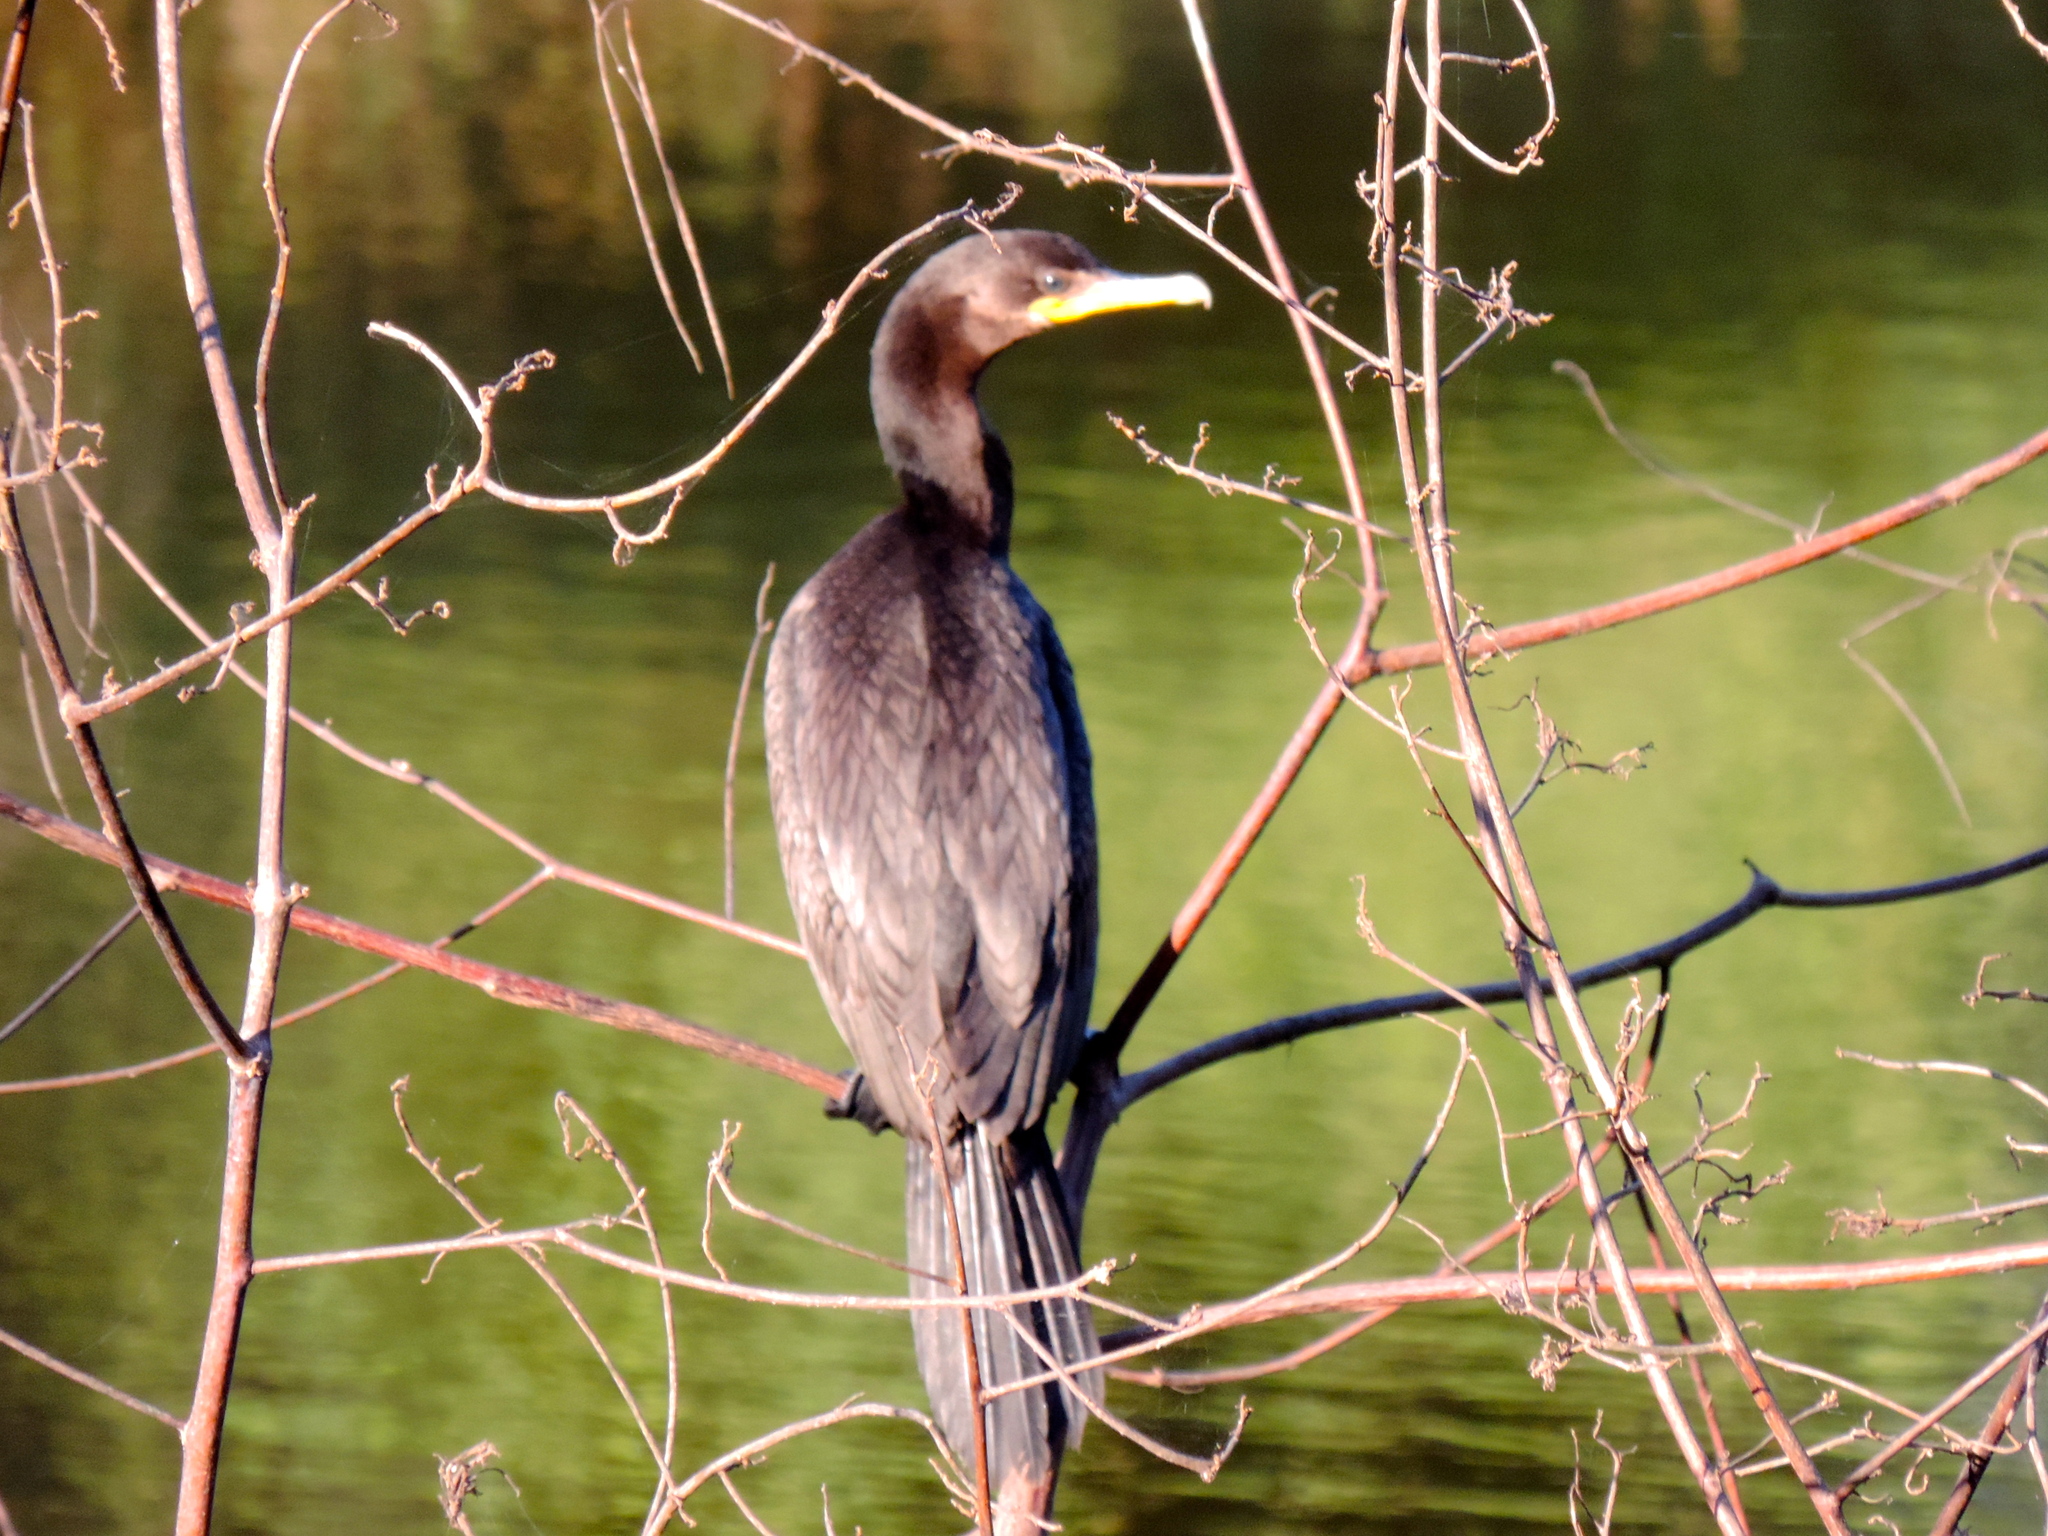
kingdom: Animalia
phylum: Chordata
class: Aves
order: Suliformes
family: Phalacrocoracidae
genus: Phalacrocorax
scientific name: Phalacrocorax brasilianus
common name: Neotropic cormorant
